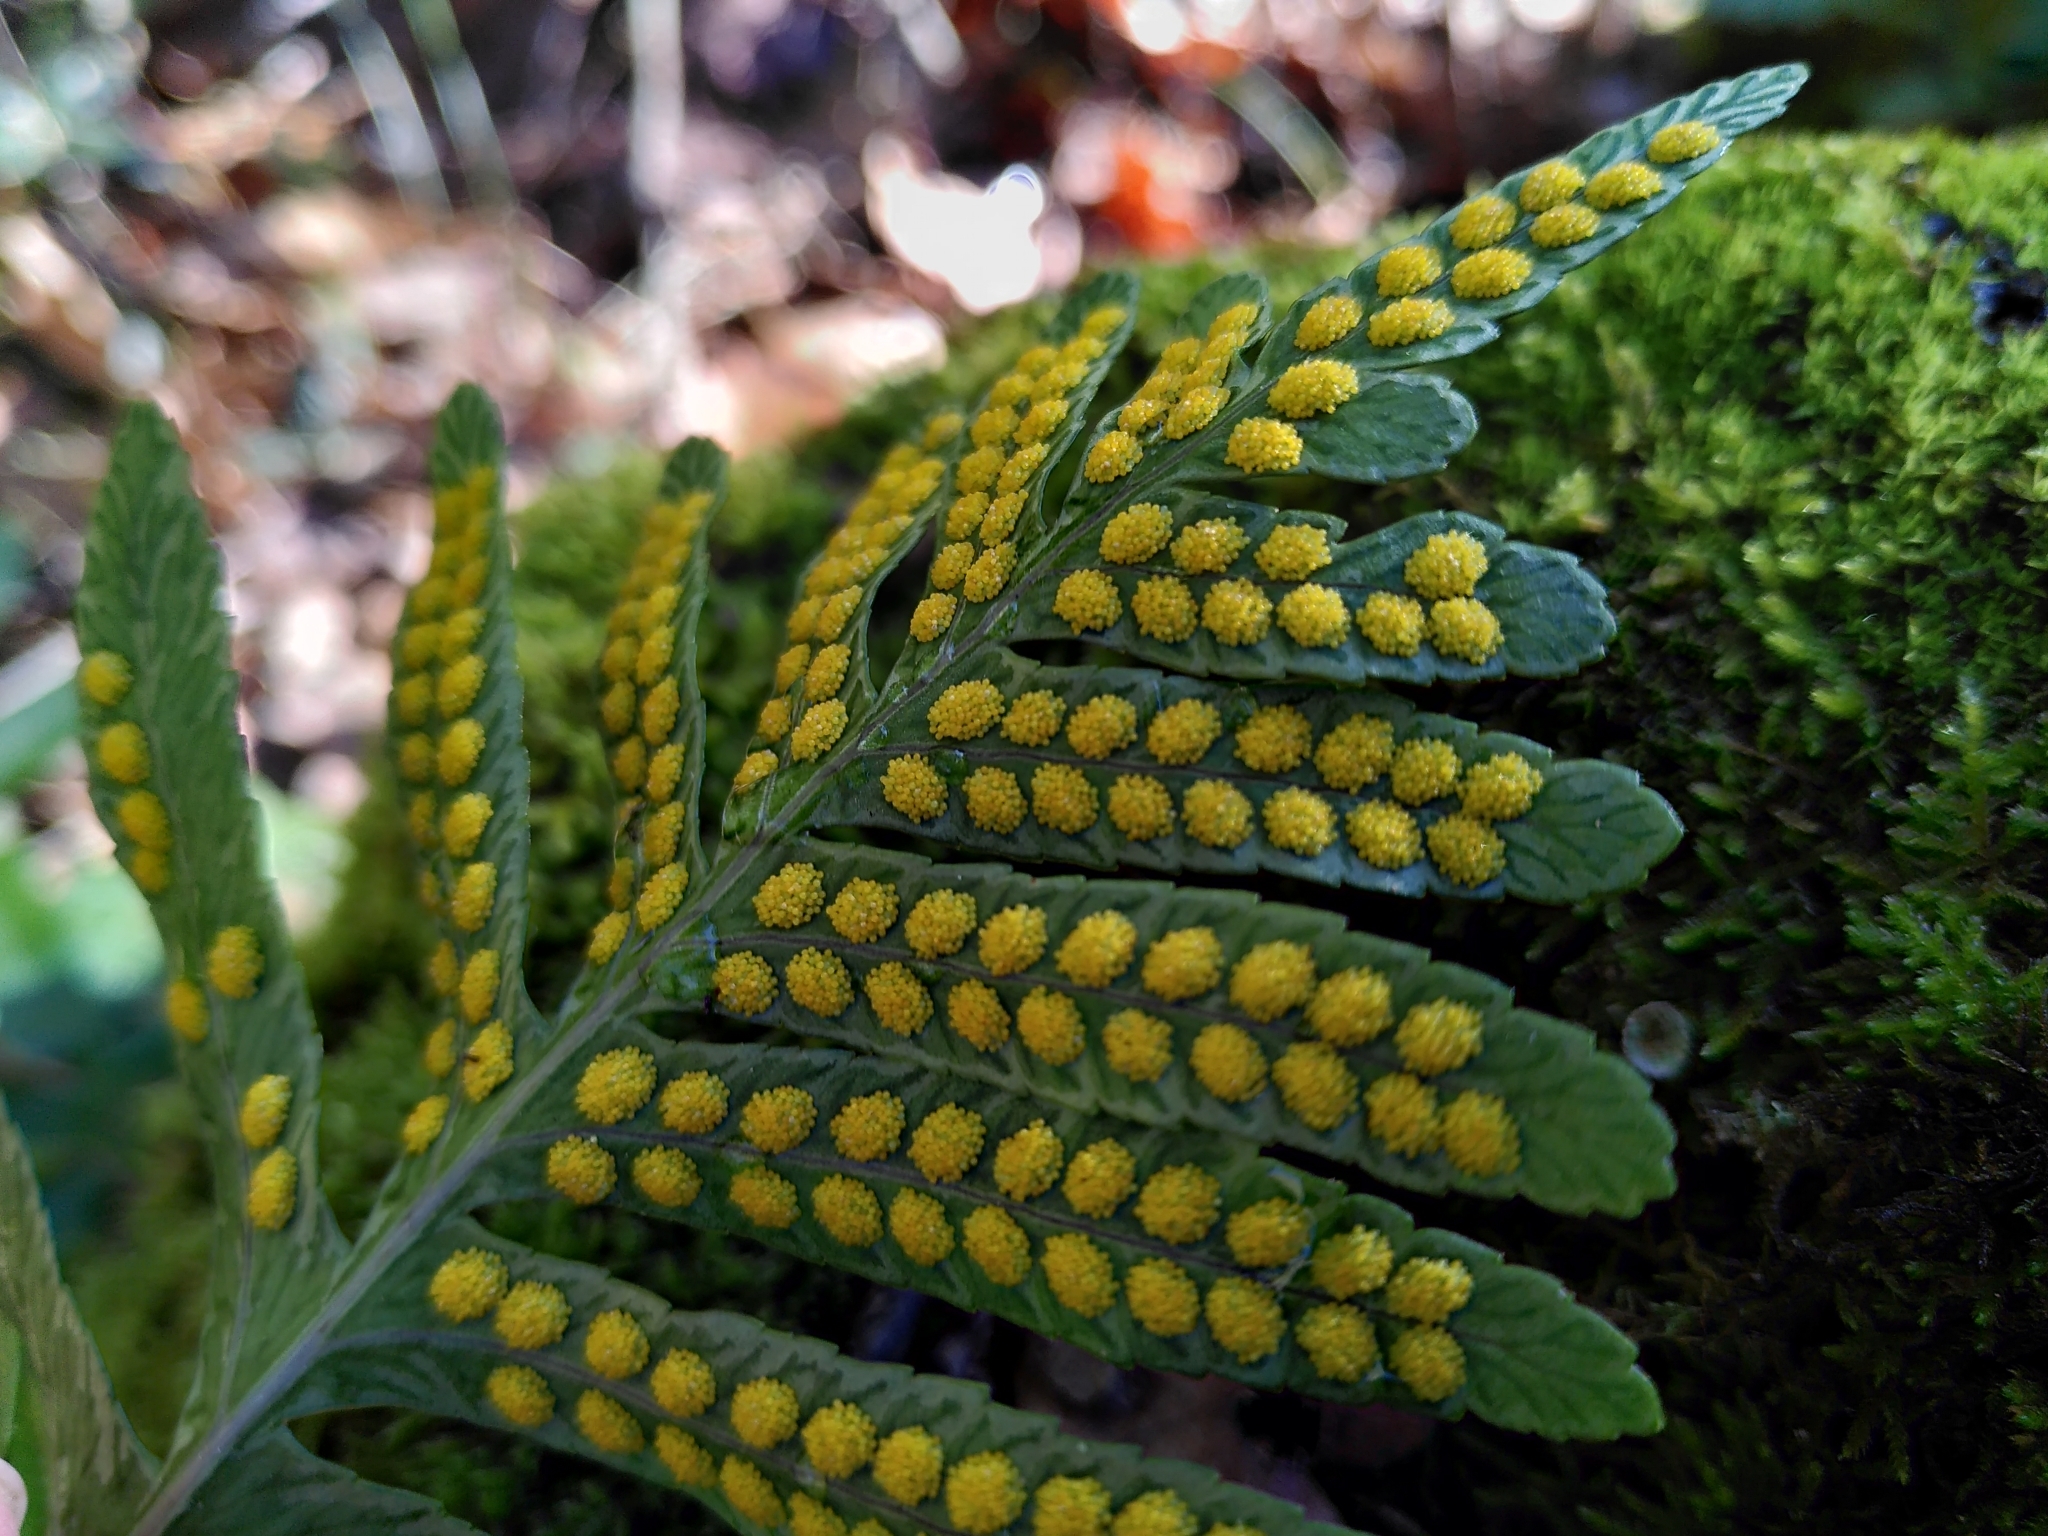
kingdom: Plantae
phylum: Tracheophyta
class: Polypodiopsida
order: Polypodiales
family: Polypodiaceae
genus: Polypodium
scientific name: Polypodium cambricum
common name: Southern polypody
